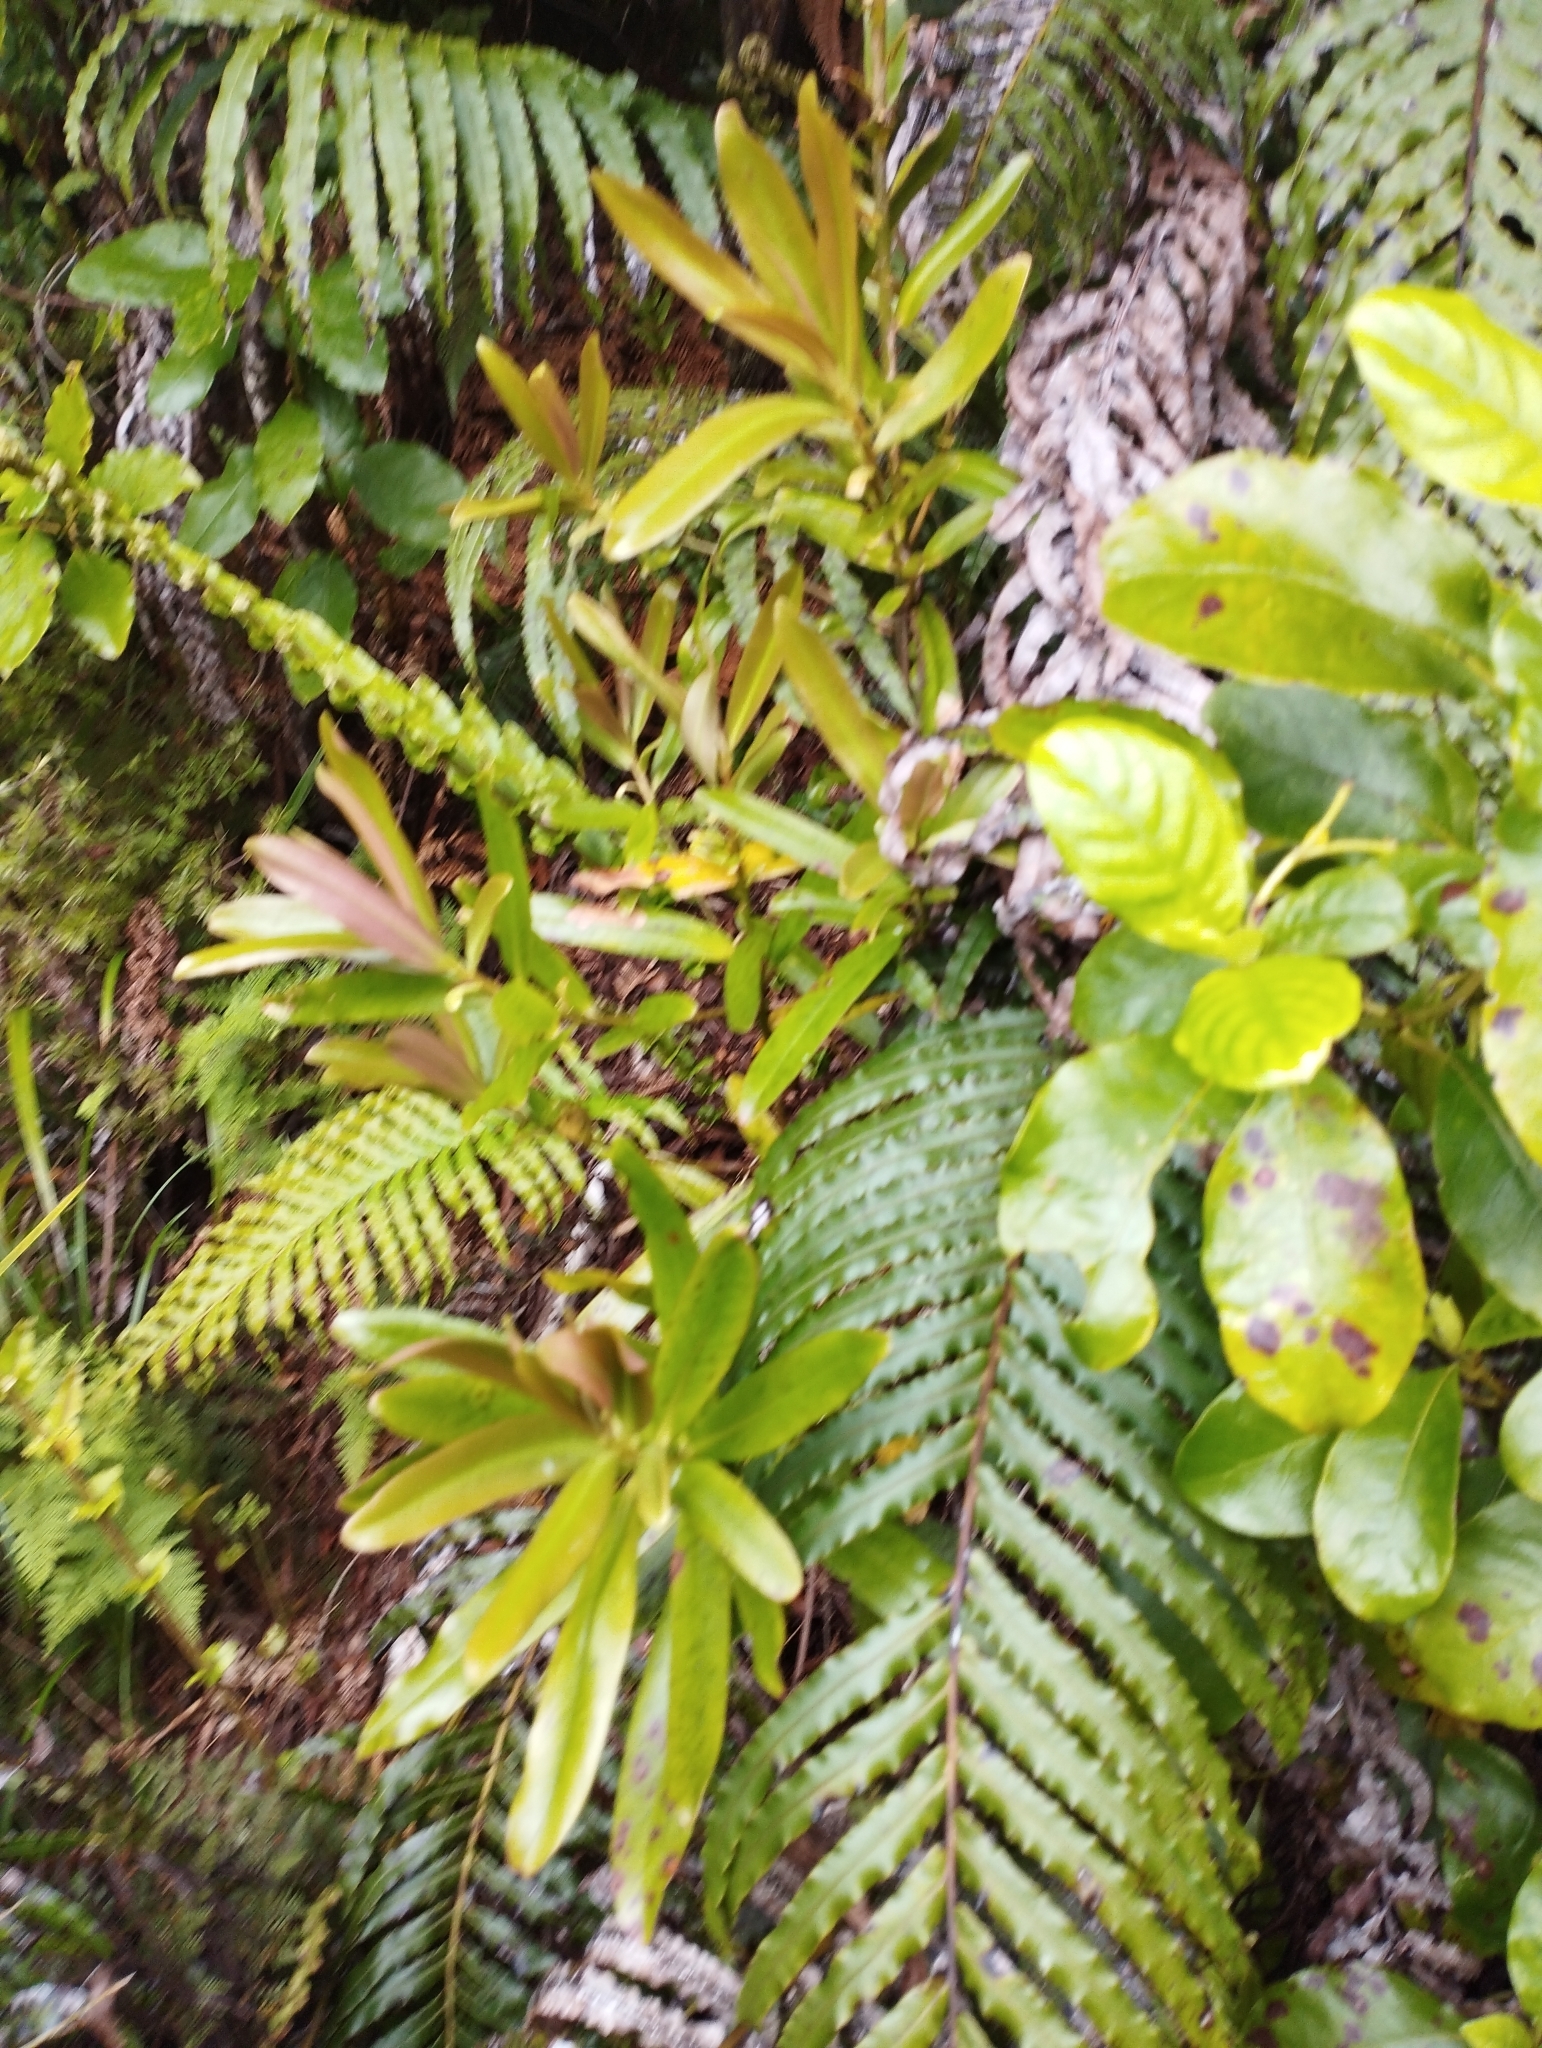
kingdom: Plantae
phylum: Tracheophyta
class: Magnoliopsida
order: Ericales
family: Primulaceae
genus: Myrsine
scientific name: Myrsine salicina
